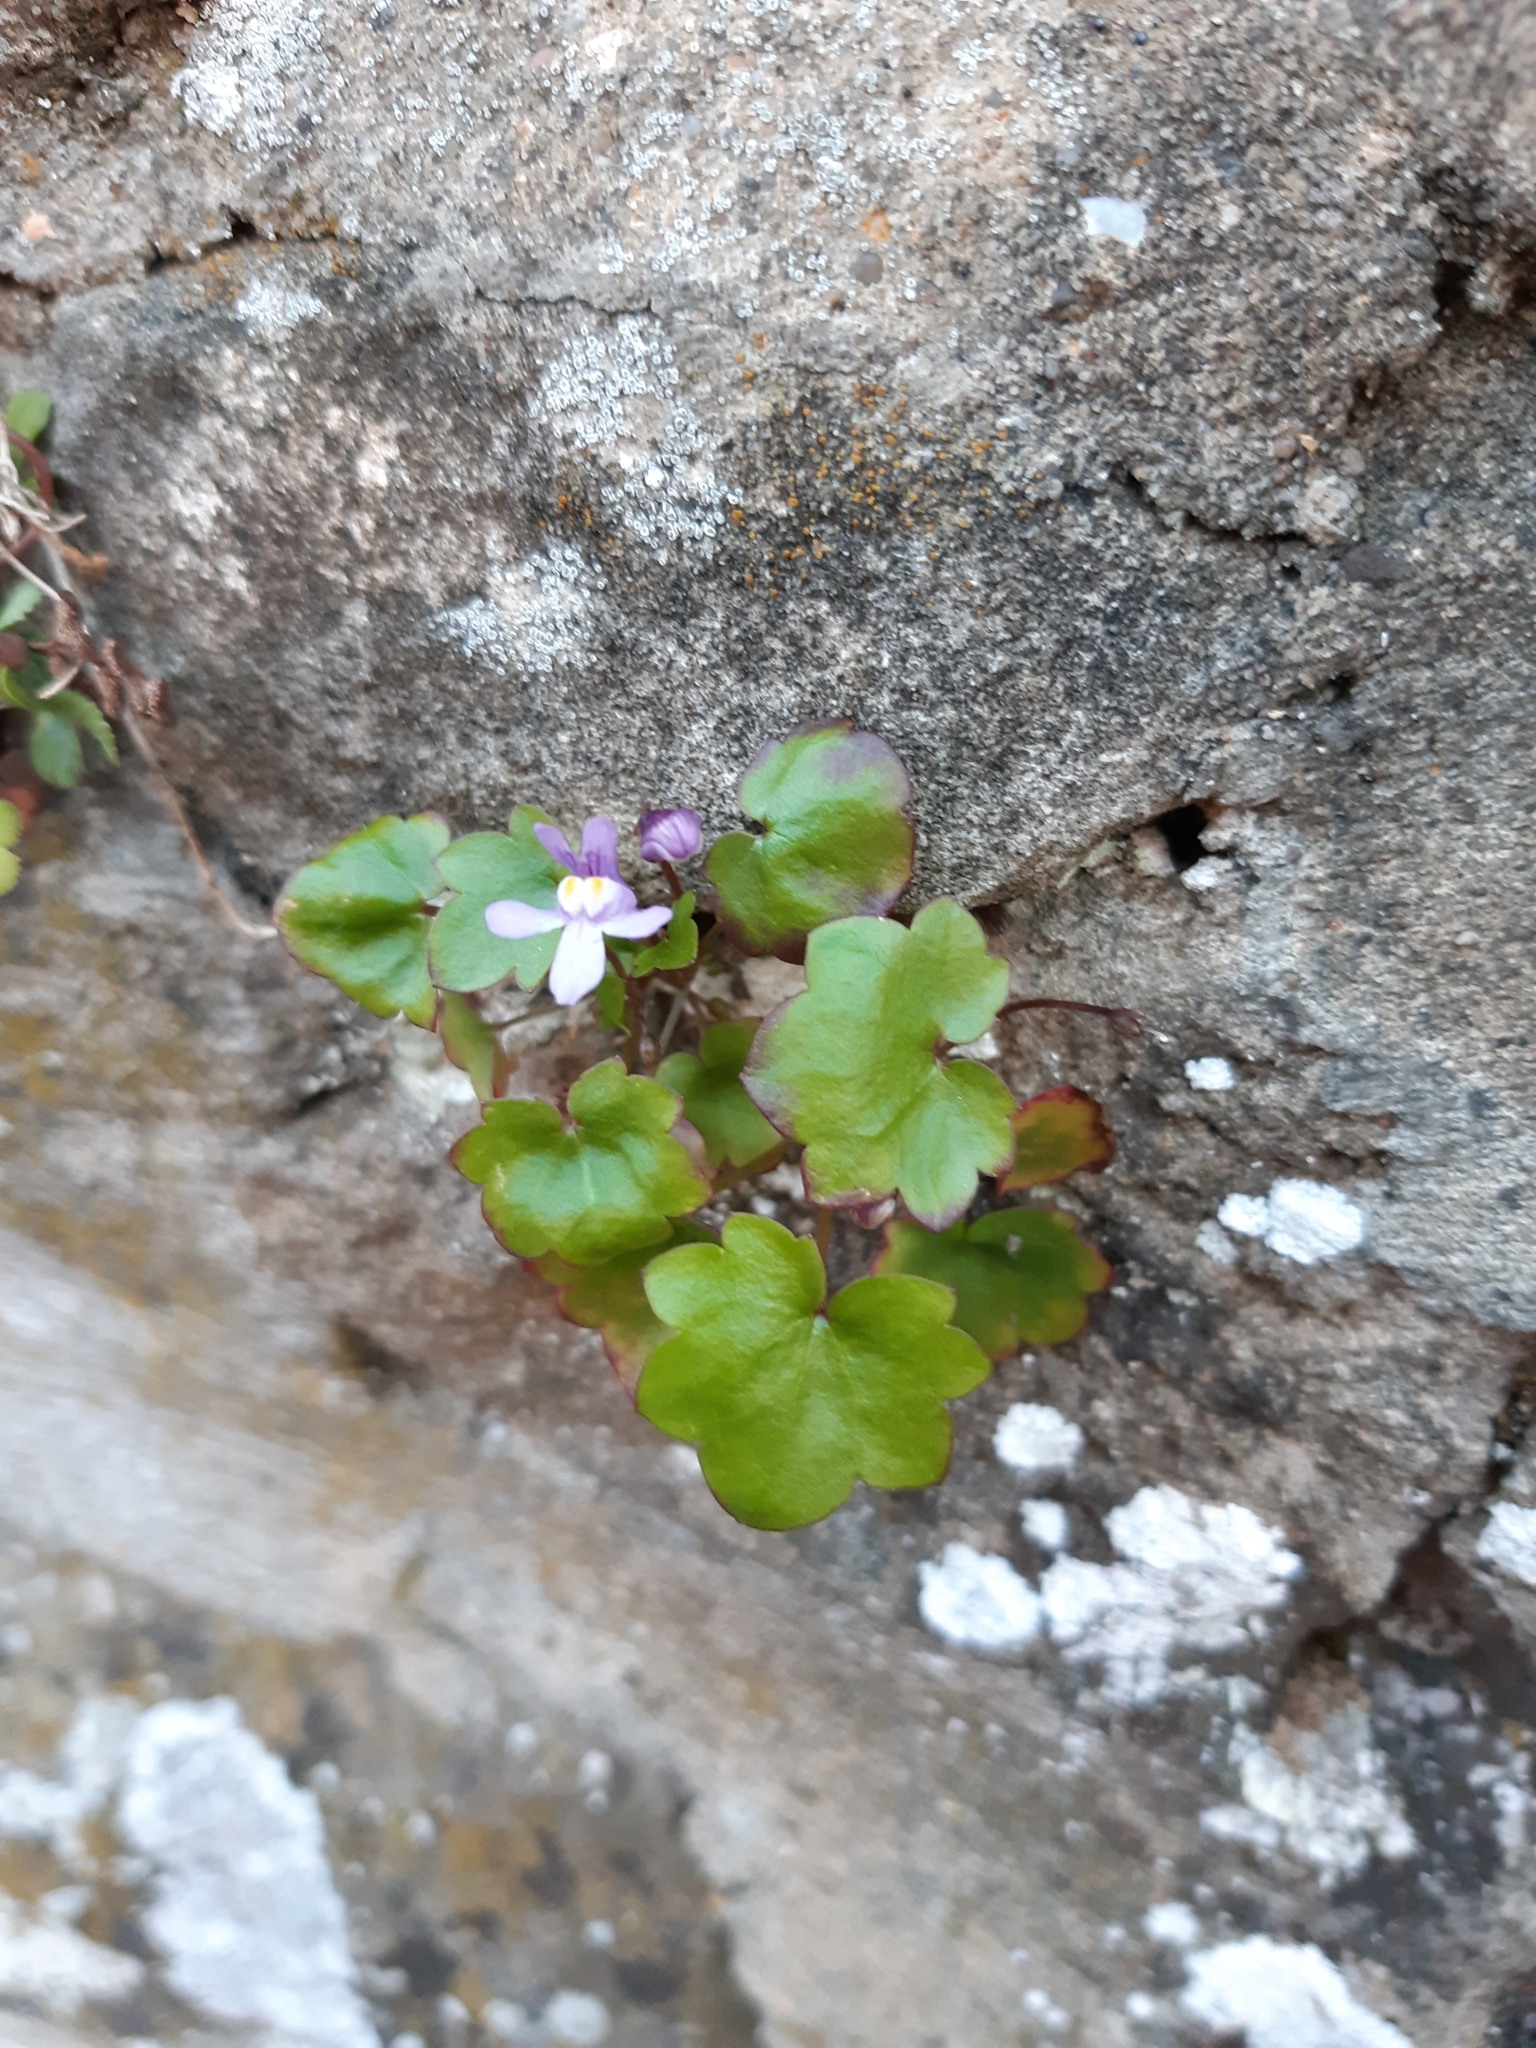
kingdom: Plantae
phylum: Tracheophyta
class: Magnoliopsida
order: Lamiales
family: Plantaginaceae
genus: Cymbalaria
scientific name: Cymbalaria muralis
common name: Ivy-leaved toadflax
